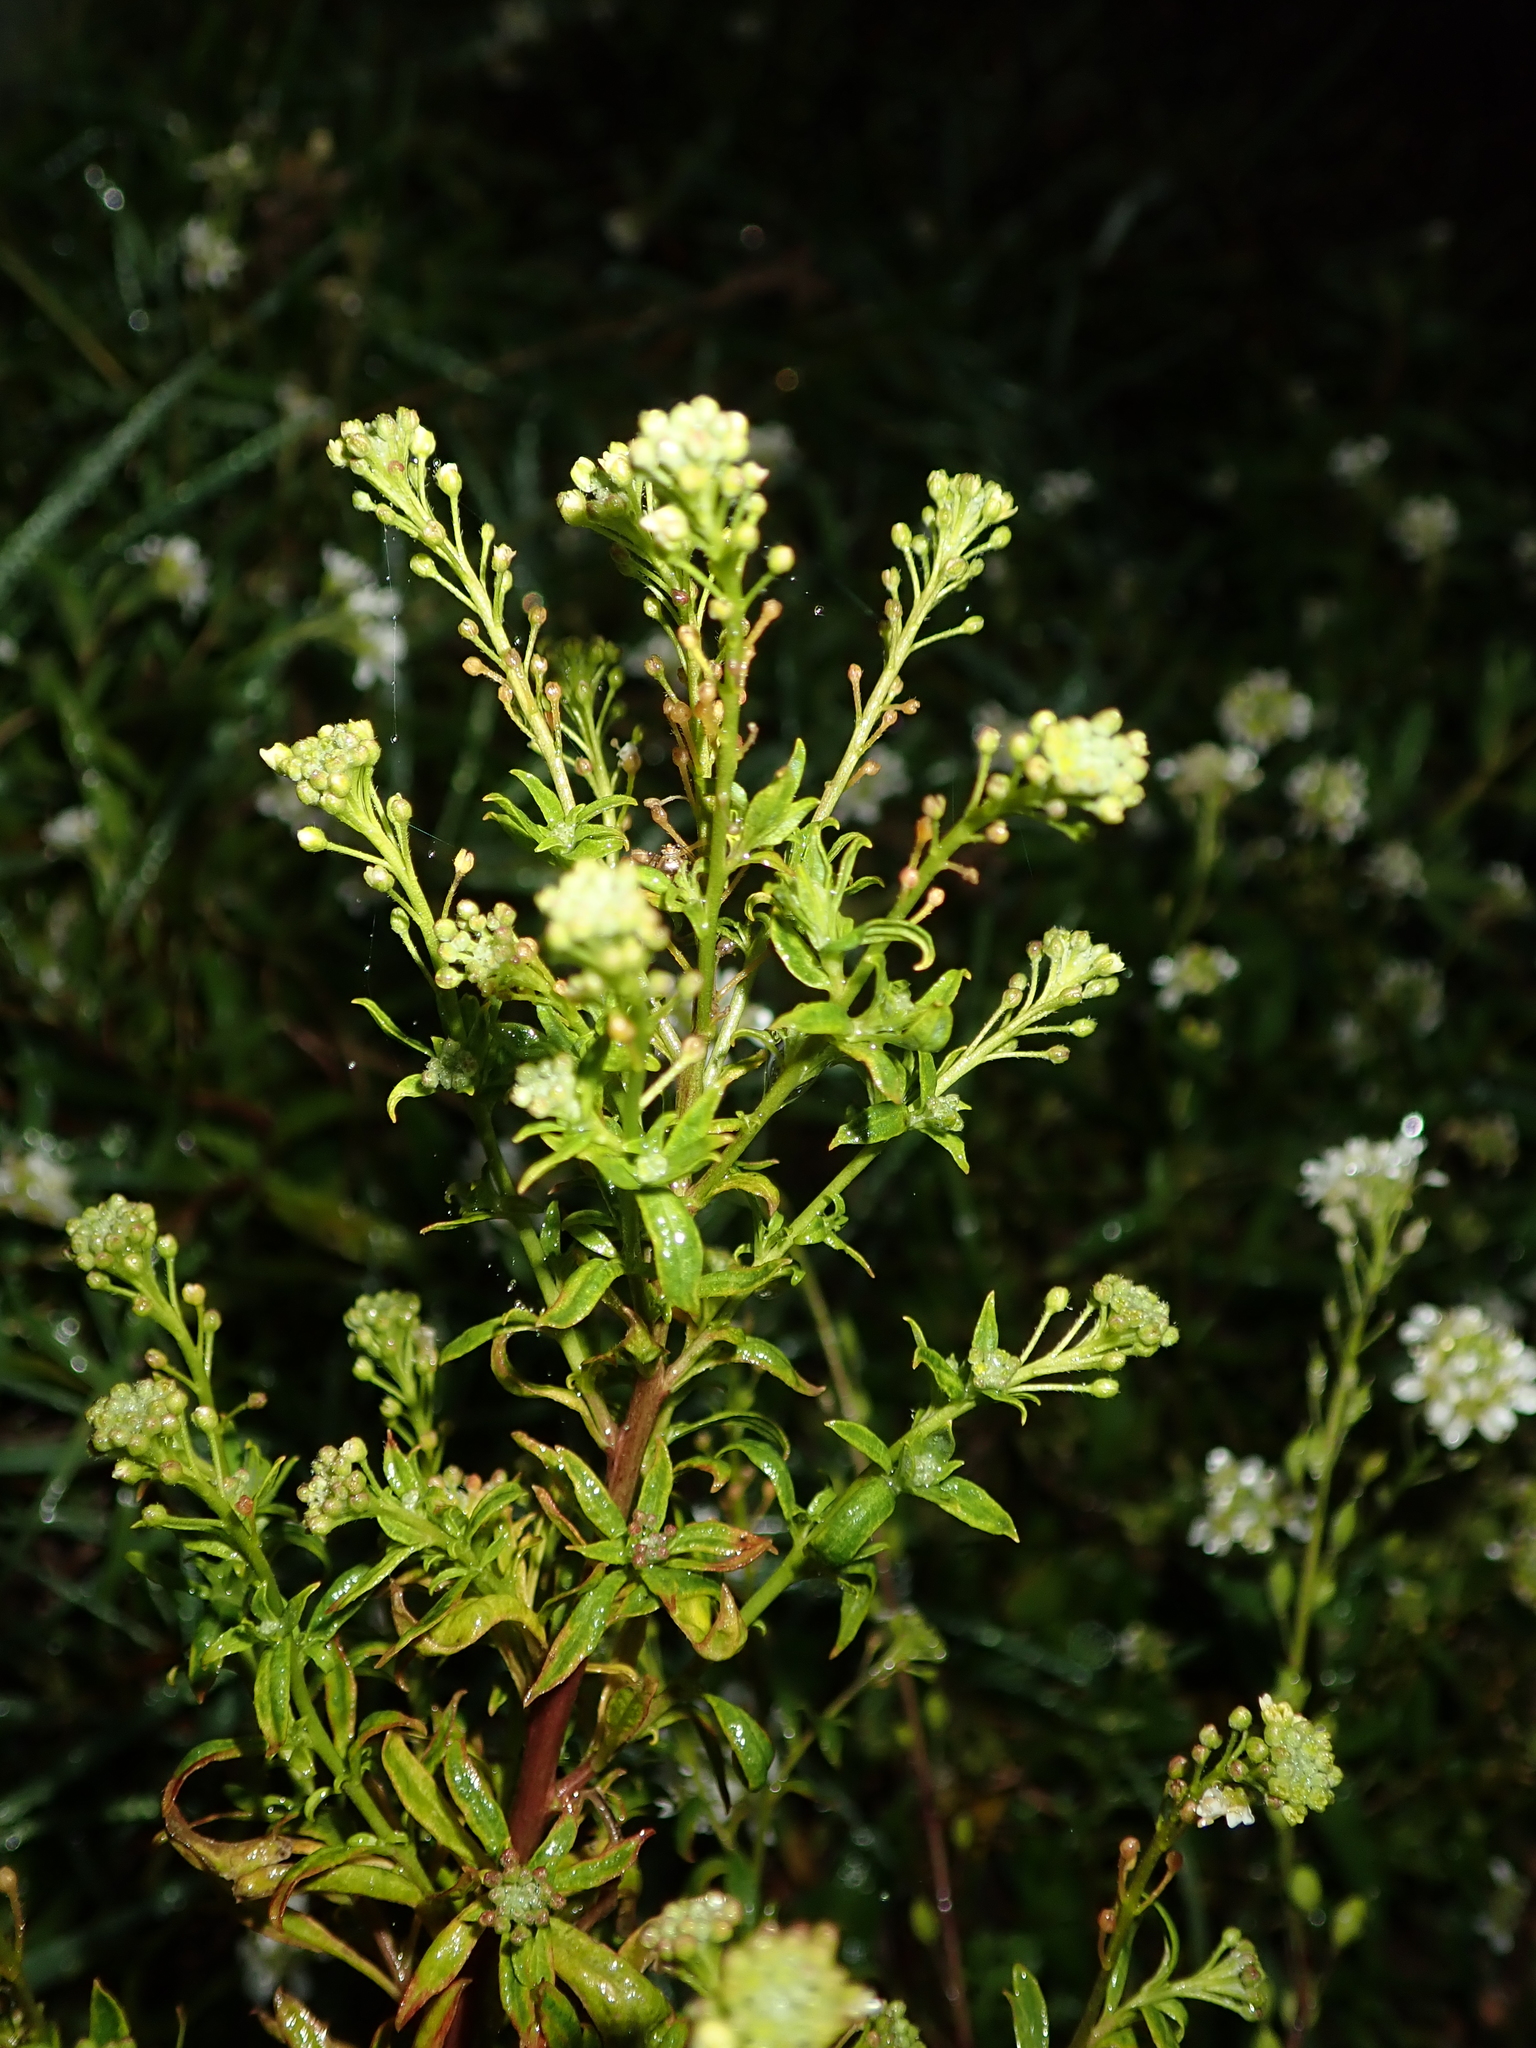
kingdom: Plantae
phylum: Tracheophyta
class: Magnoliopsida
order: Brassicales
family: Brassicaceae
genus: Berteroa
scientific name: Berteroa incana
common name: Hoary alison
